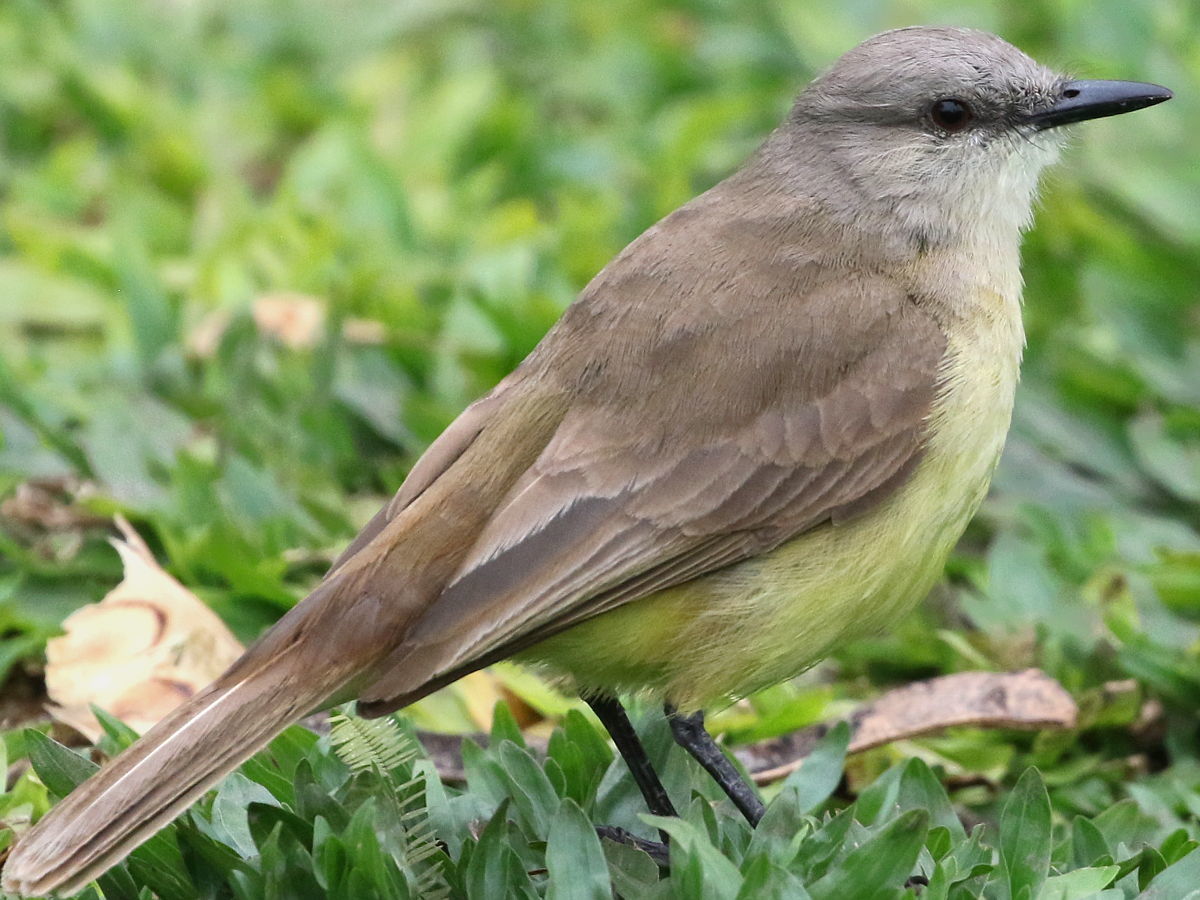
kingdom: Animalia
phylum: Chordata
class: Aves
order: Passeriformes
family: Tyrannidae
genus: Machetornis
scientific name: Machetornis rixosa
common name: Cattle tyrant
